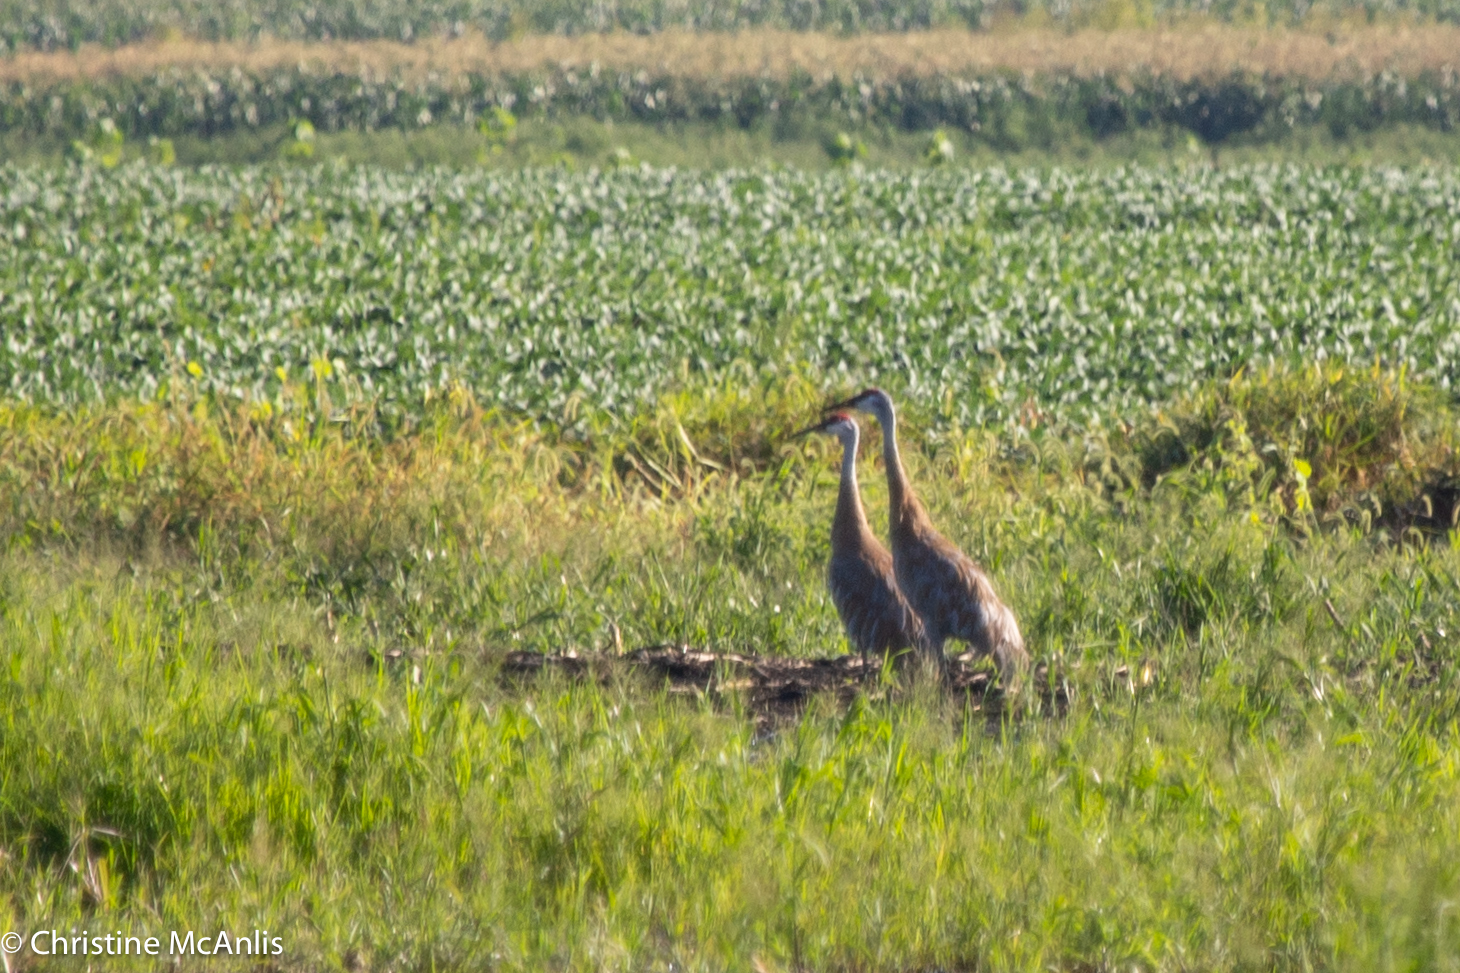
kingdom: Animalia
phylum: Chordata
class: Aves
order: Gruiformes
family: Gruidae
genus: Grus
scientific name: Grus canadensis
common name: Sandhill crane
